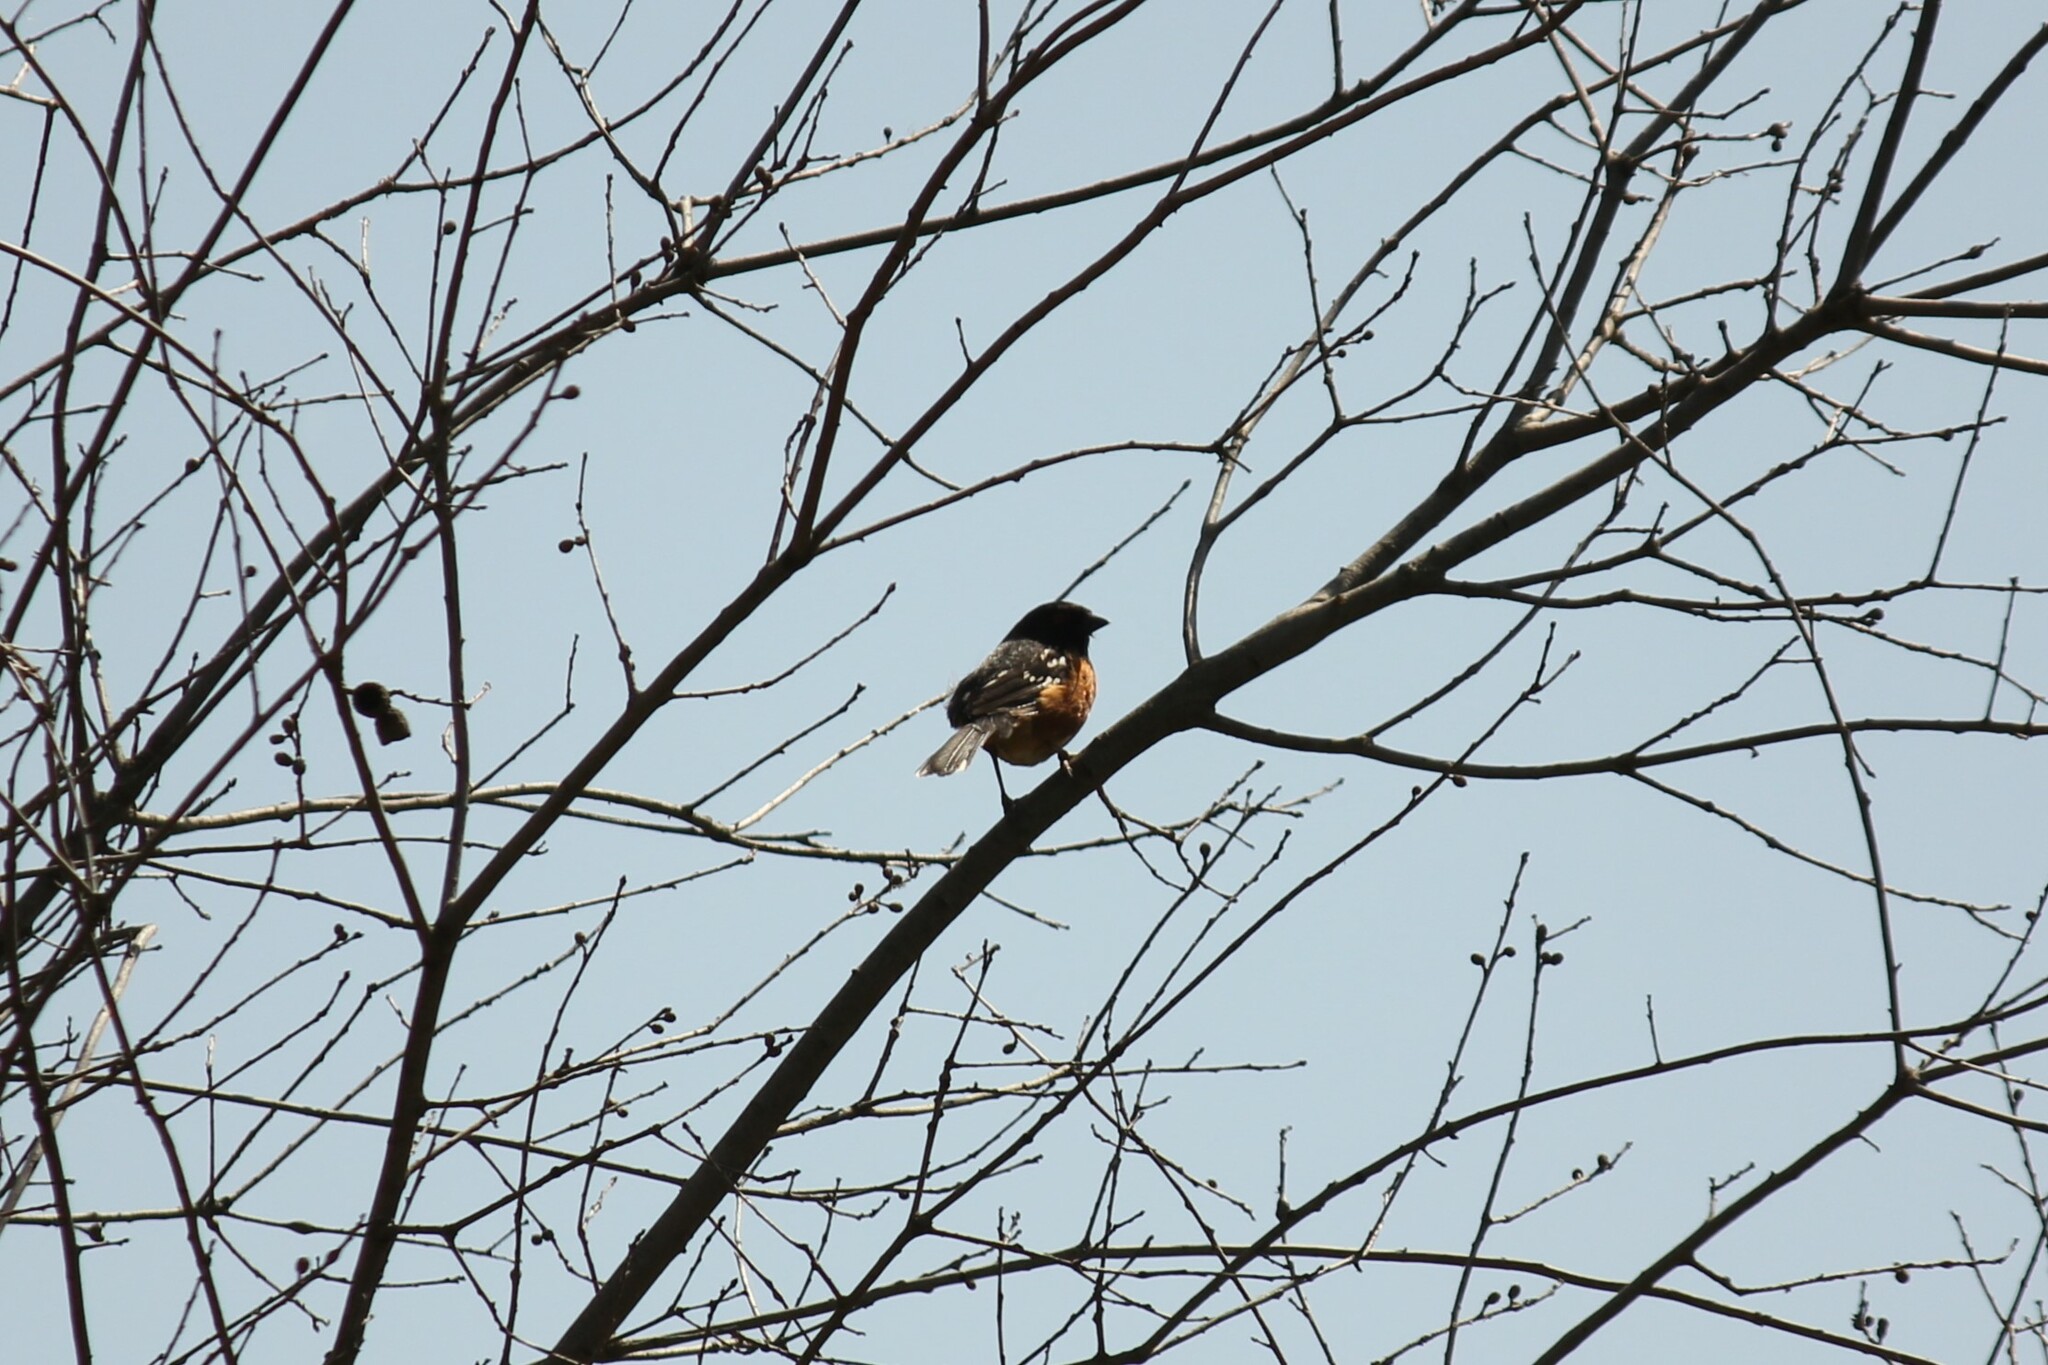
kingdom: Animalia
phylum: Chordata
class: Aves
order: Passeriformes
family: Passerellidae
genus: Pipilo
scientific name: Pipilo maculatus
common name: Spotted towhee
